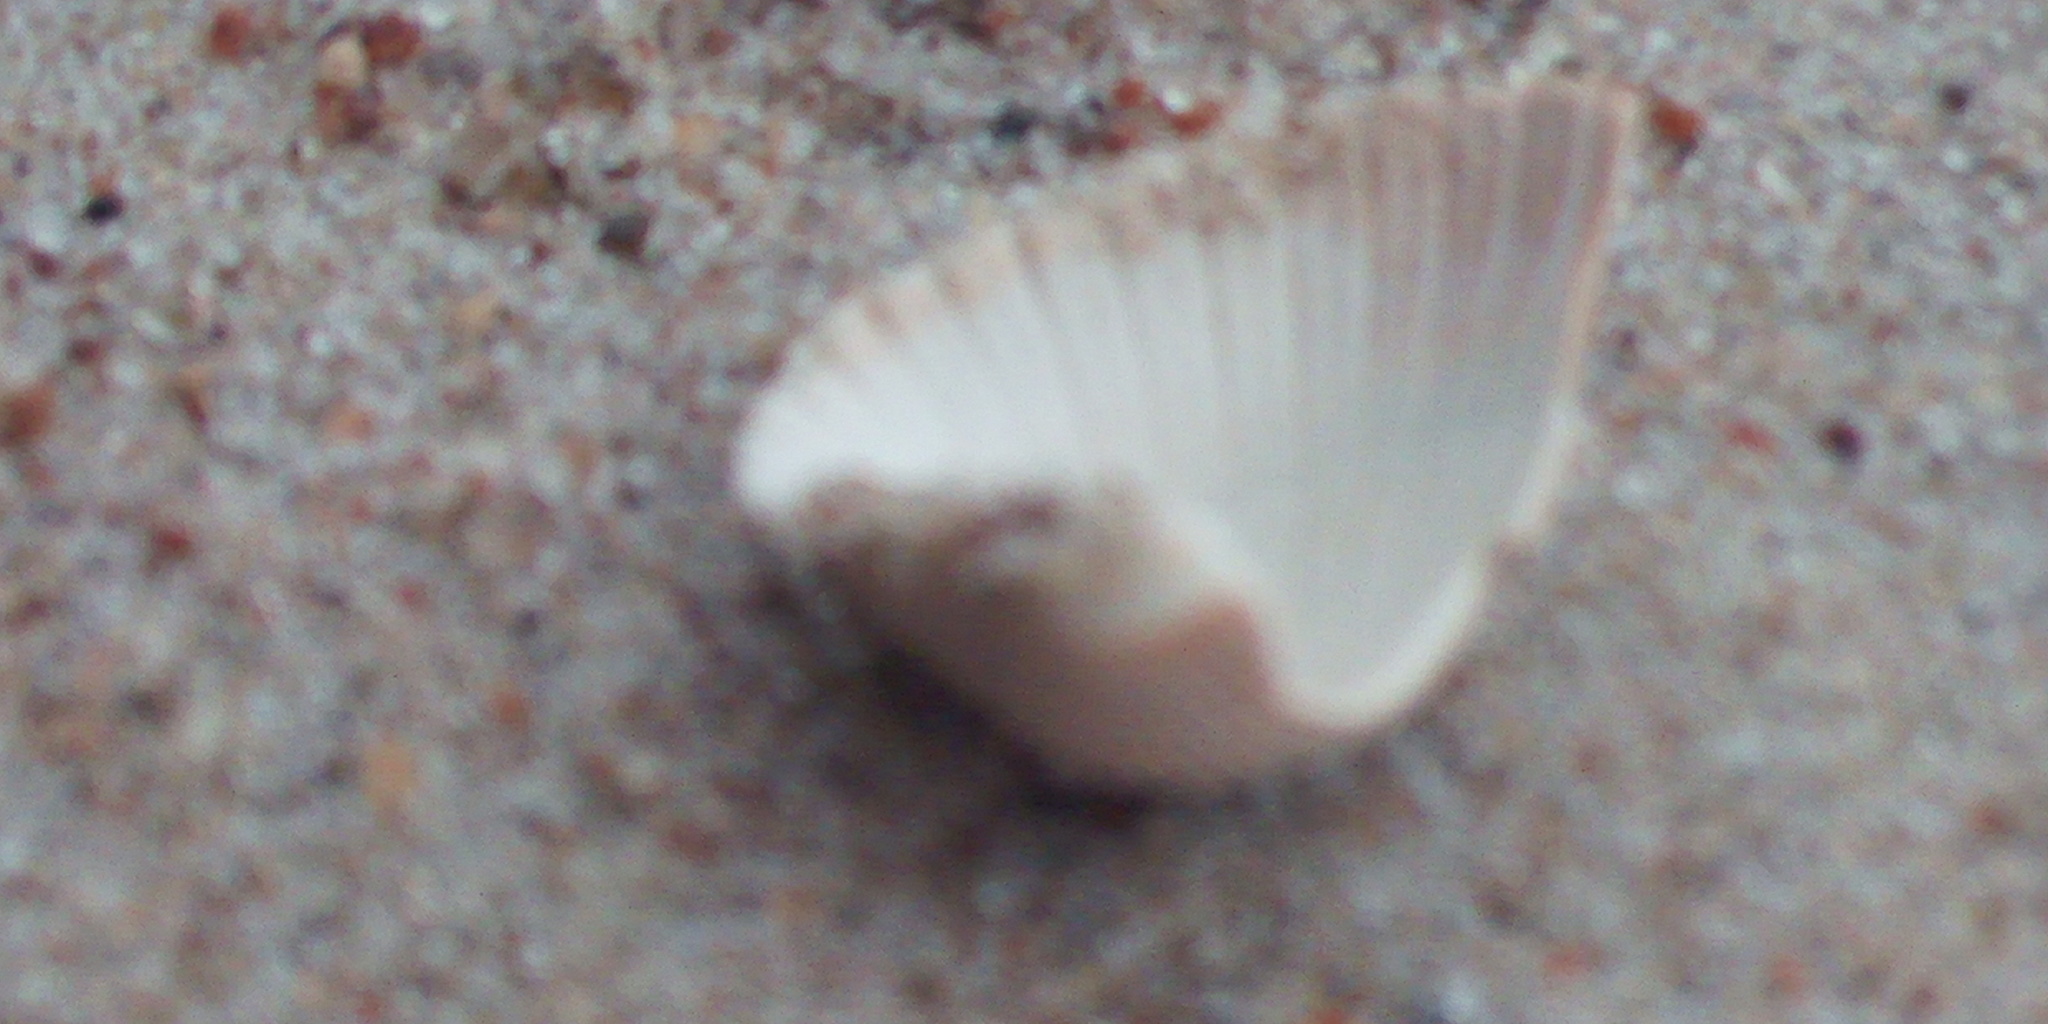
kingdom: Animalia
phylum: Mollusca
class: Bivalvia
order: Cardiida
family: Cardiidae
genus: Cerastoderma
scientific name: Cerastoderma glaucum
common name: Lagoon cockle
